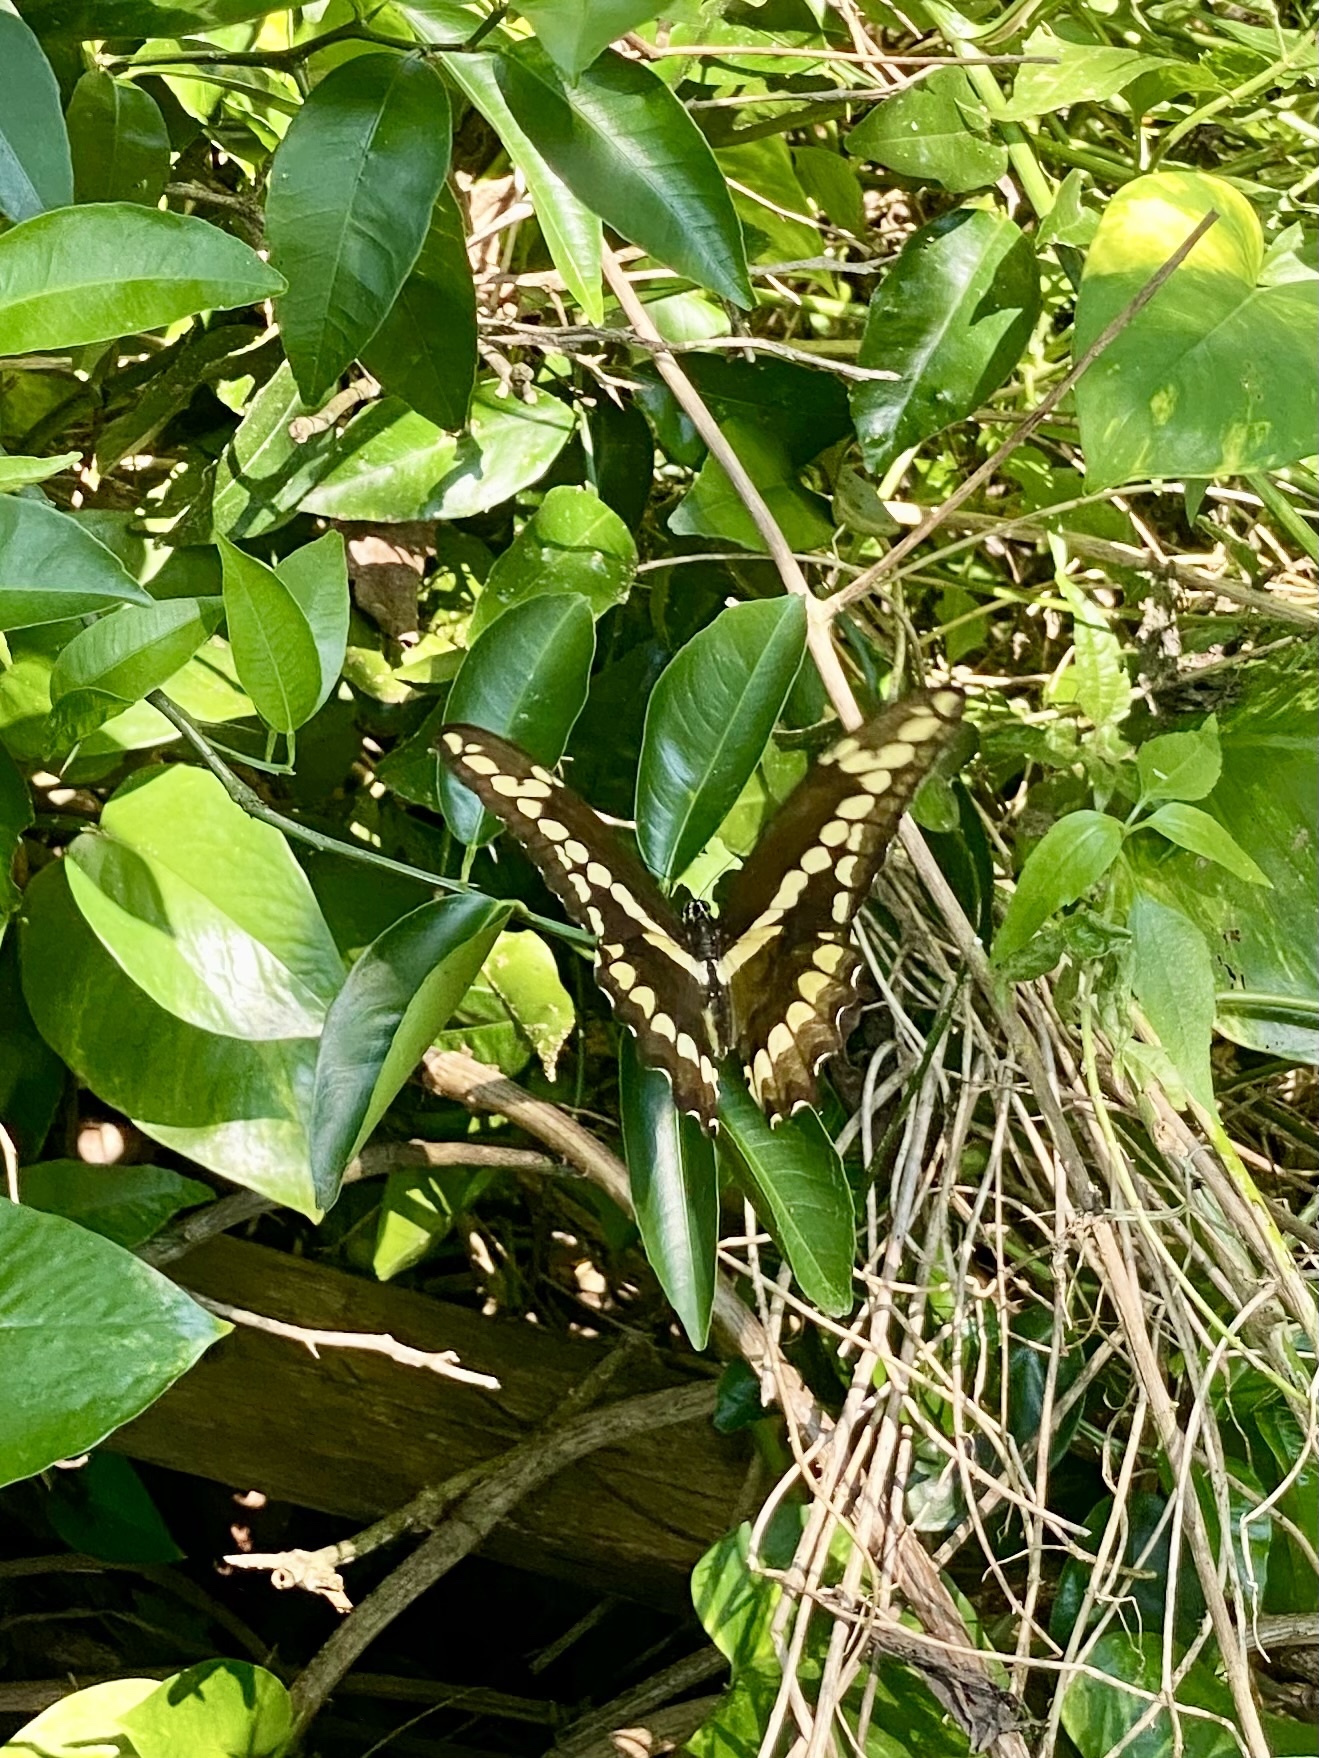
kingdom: Animalia
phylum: Arthropoda
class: Insecta
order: Lepidoptera
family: Papilionidae
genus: Papilio
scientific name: Papilio cresphontes
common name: Giant swallowtail
